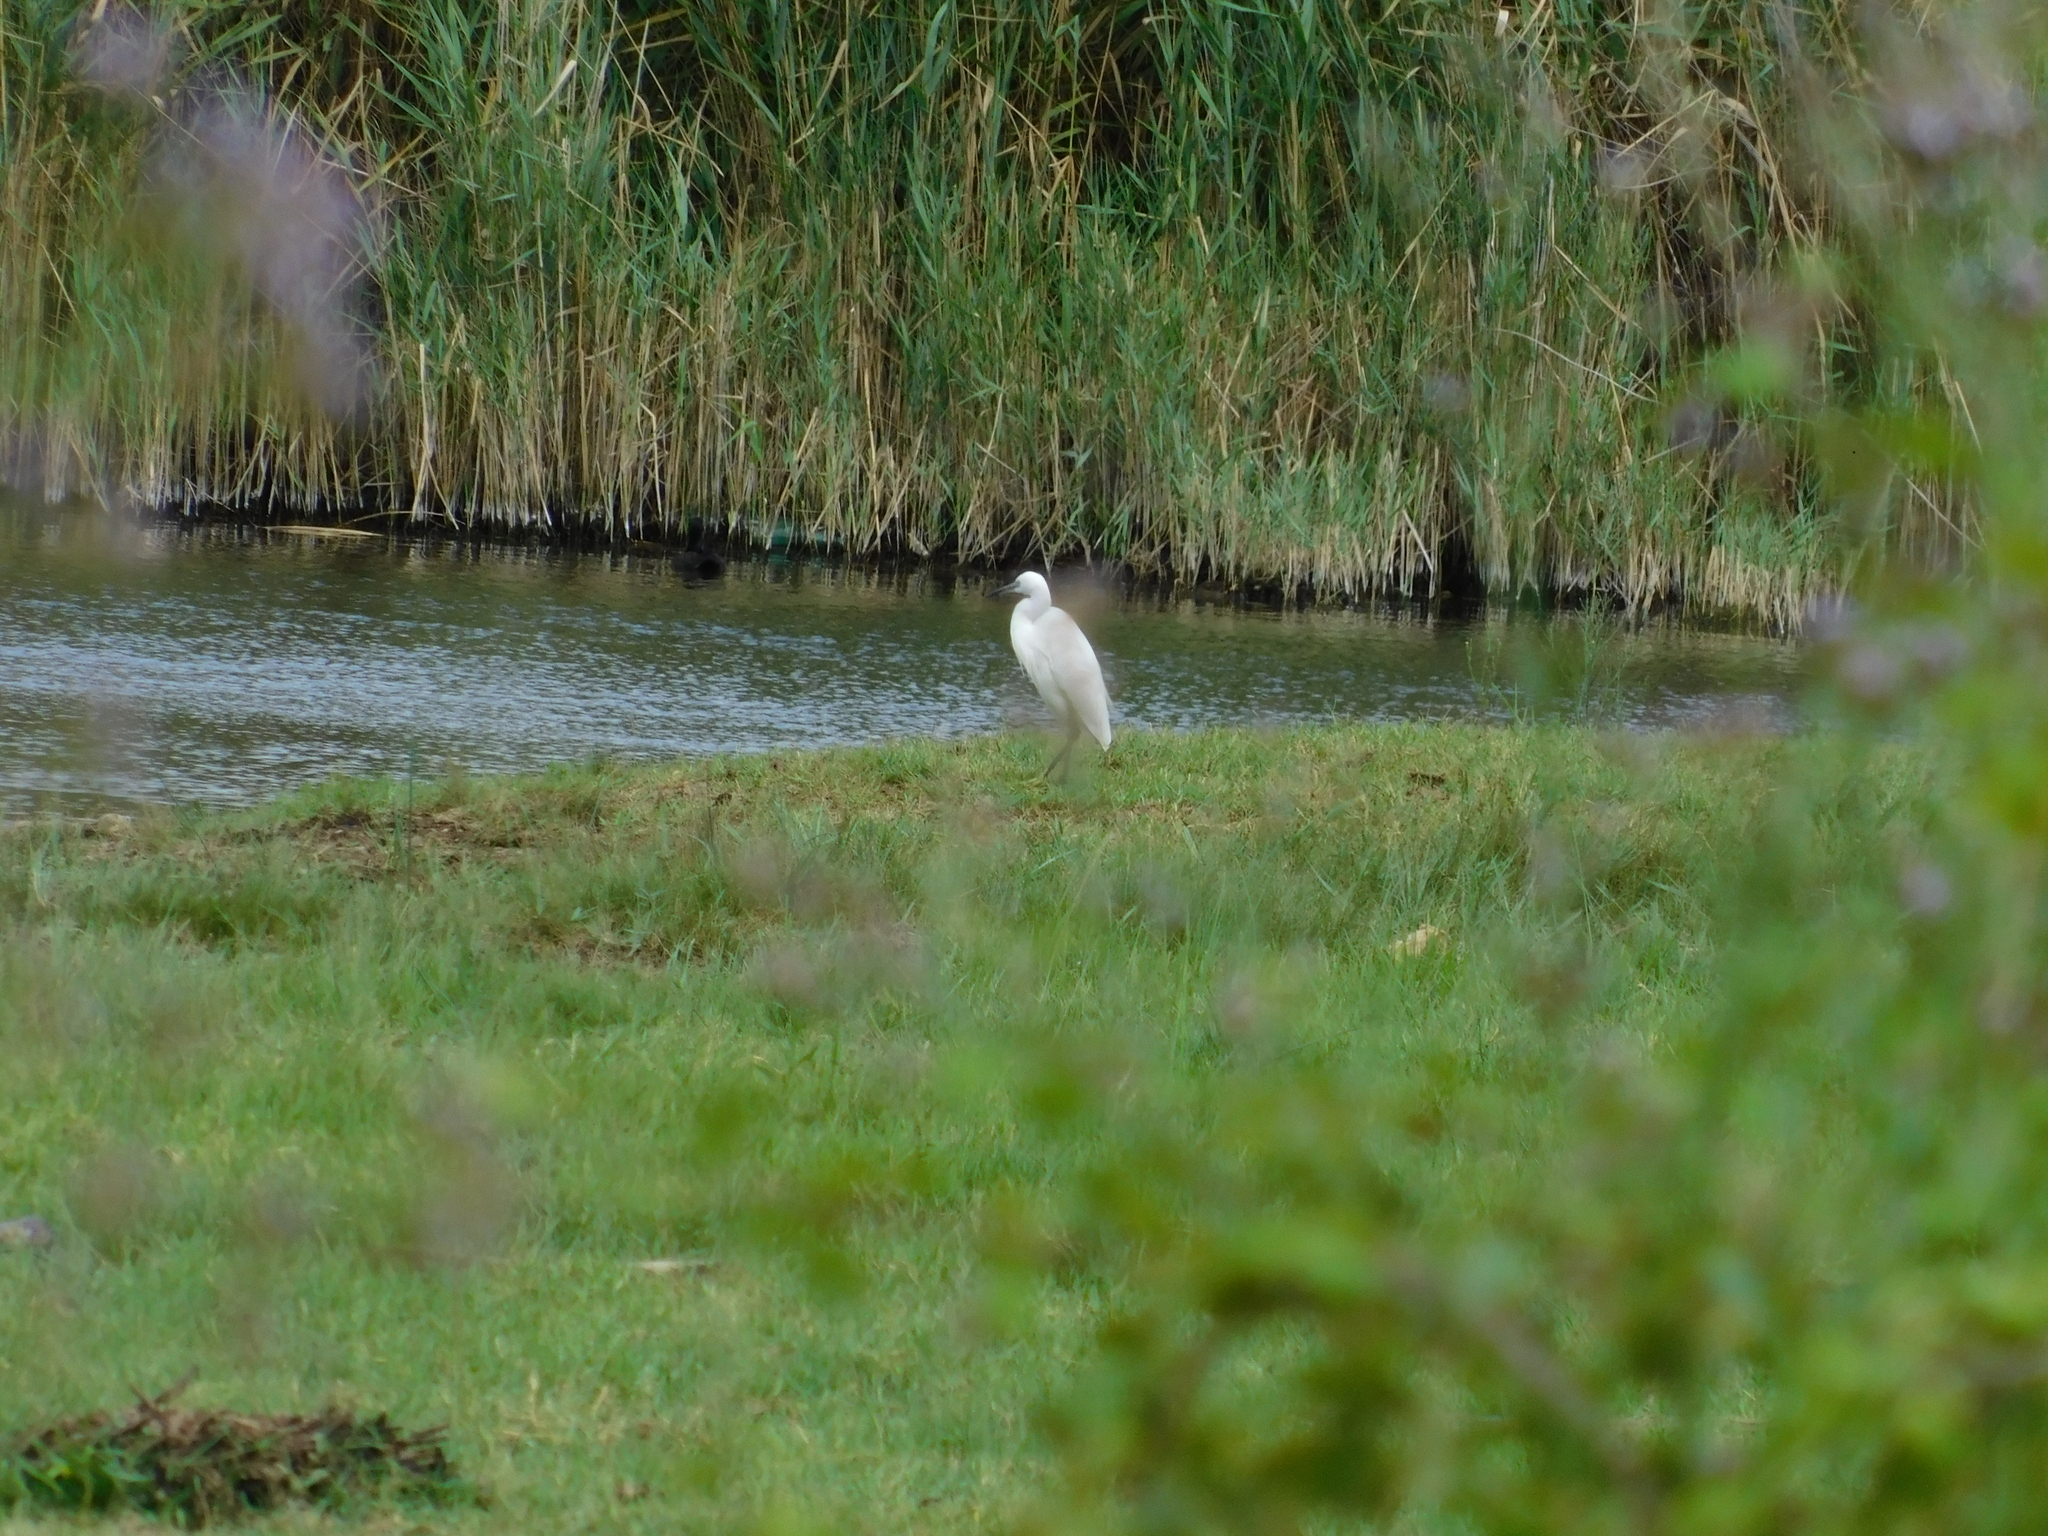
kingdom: Animalia
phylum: Chordata
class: Aves
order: Pelecaniformes
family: Ardeidae
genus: Egretta
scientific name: Egretta garzetta
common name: Little egret
